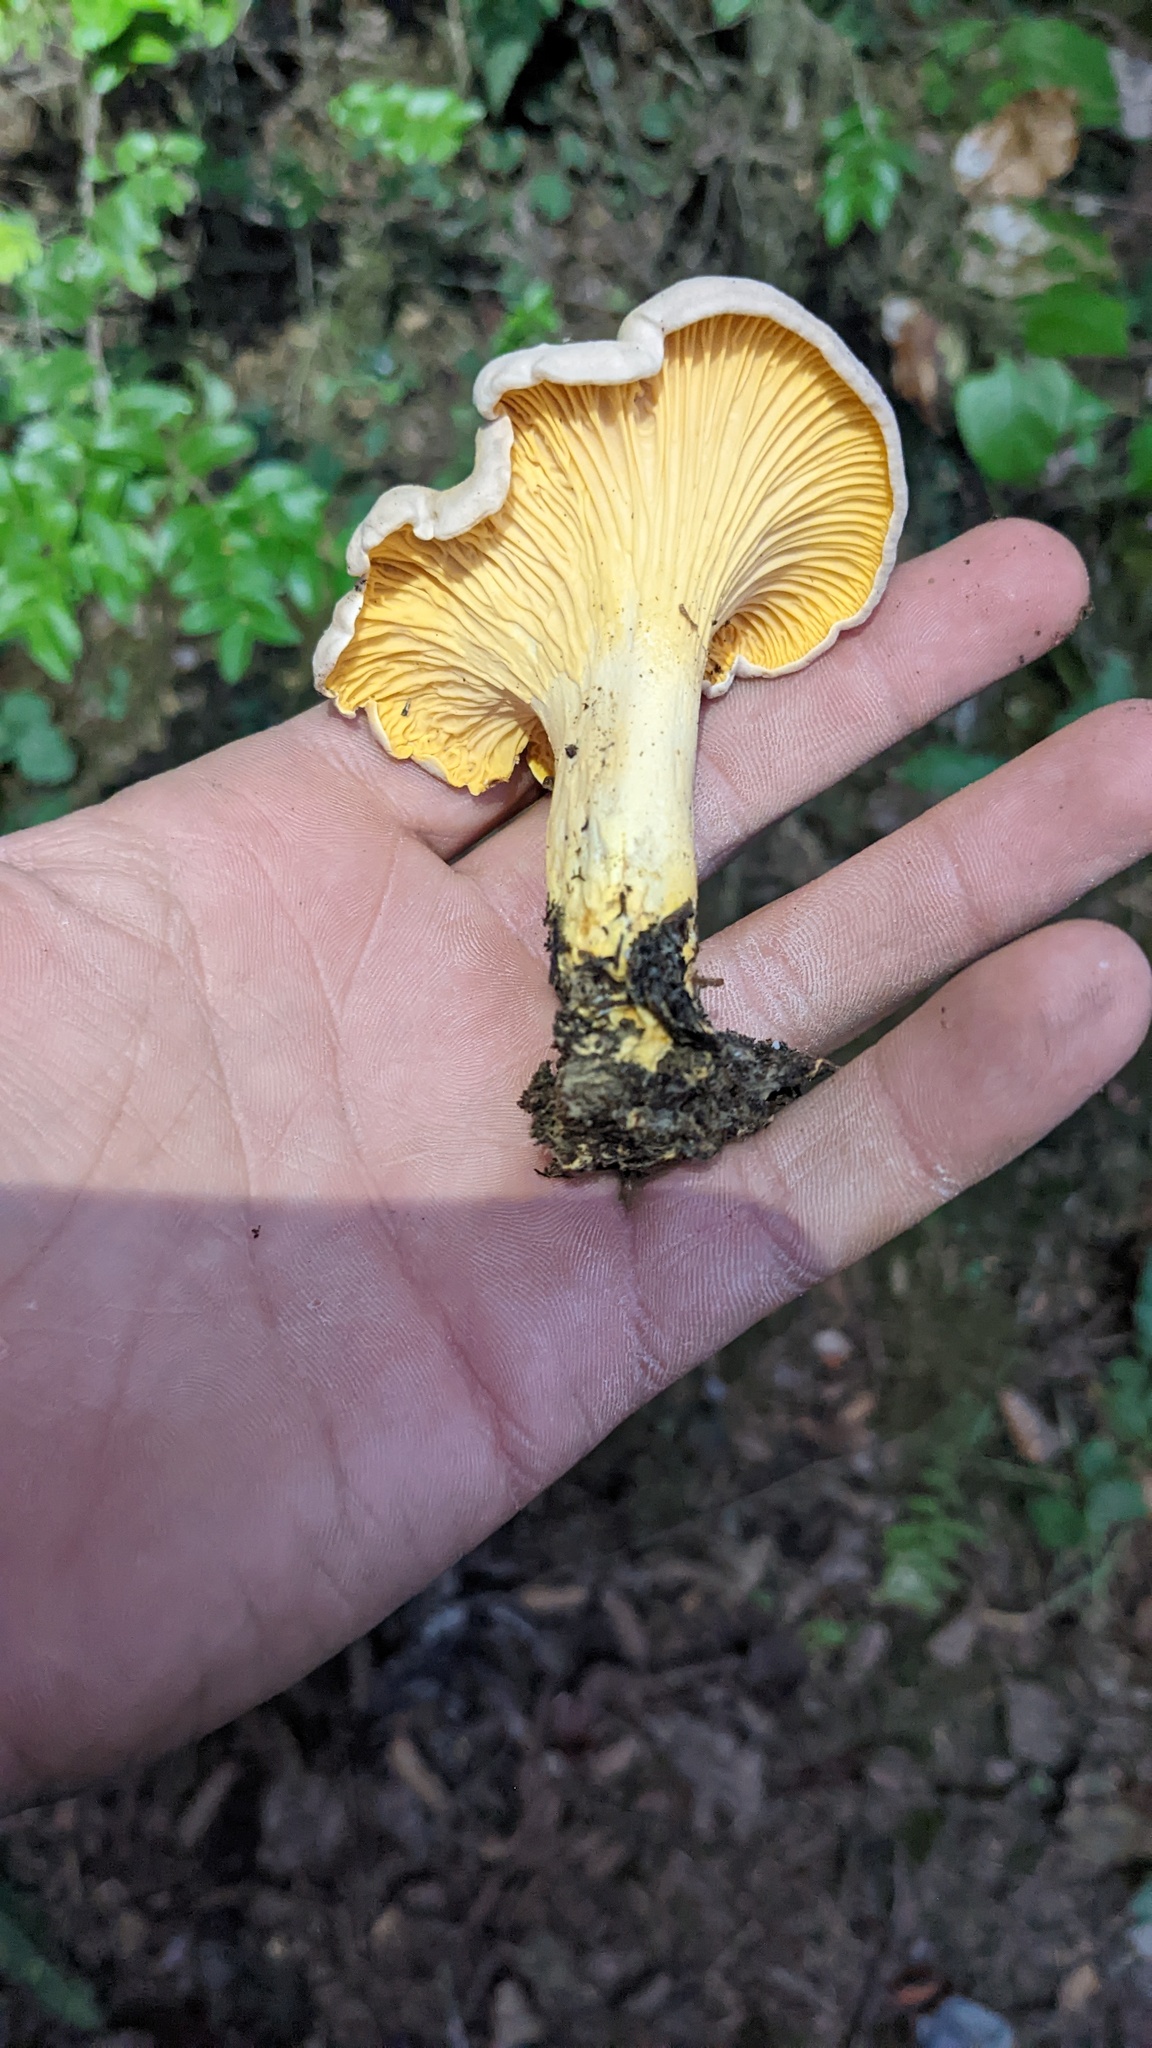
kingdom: Fungi
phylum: Basidiomycota
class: Agaricomycetes
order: Cantharellales
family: Hydnaceae
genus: Cantharellus
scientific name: Cantharellus roseocanus
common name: Rainbow chanterelle
